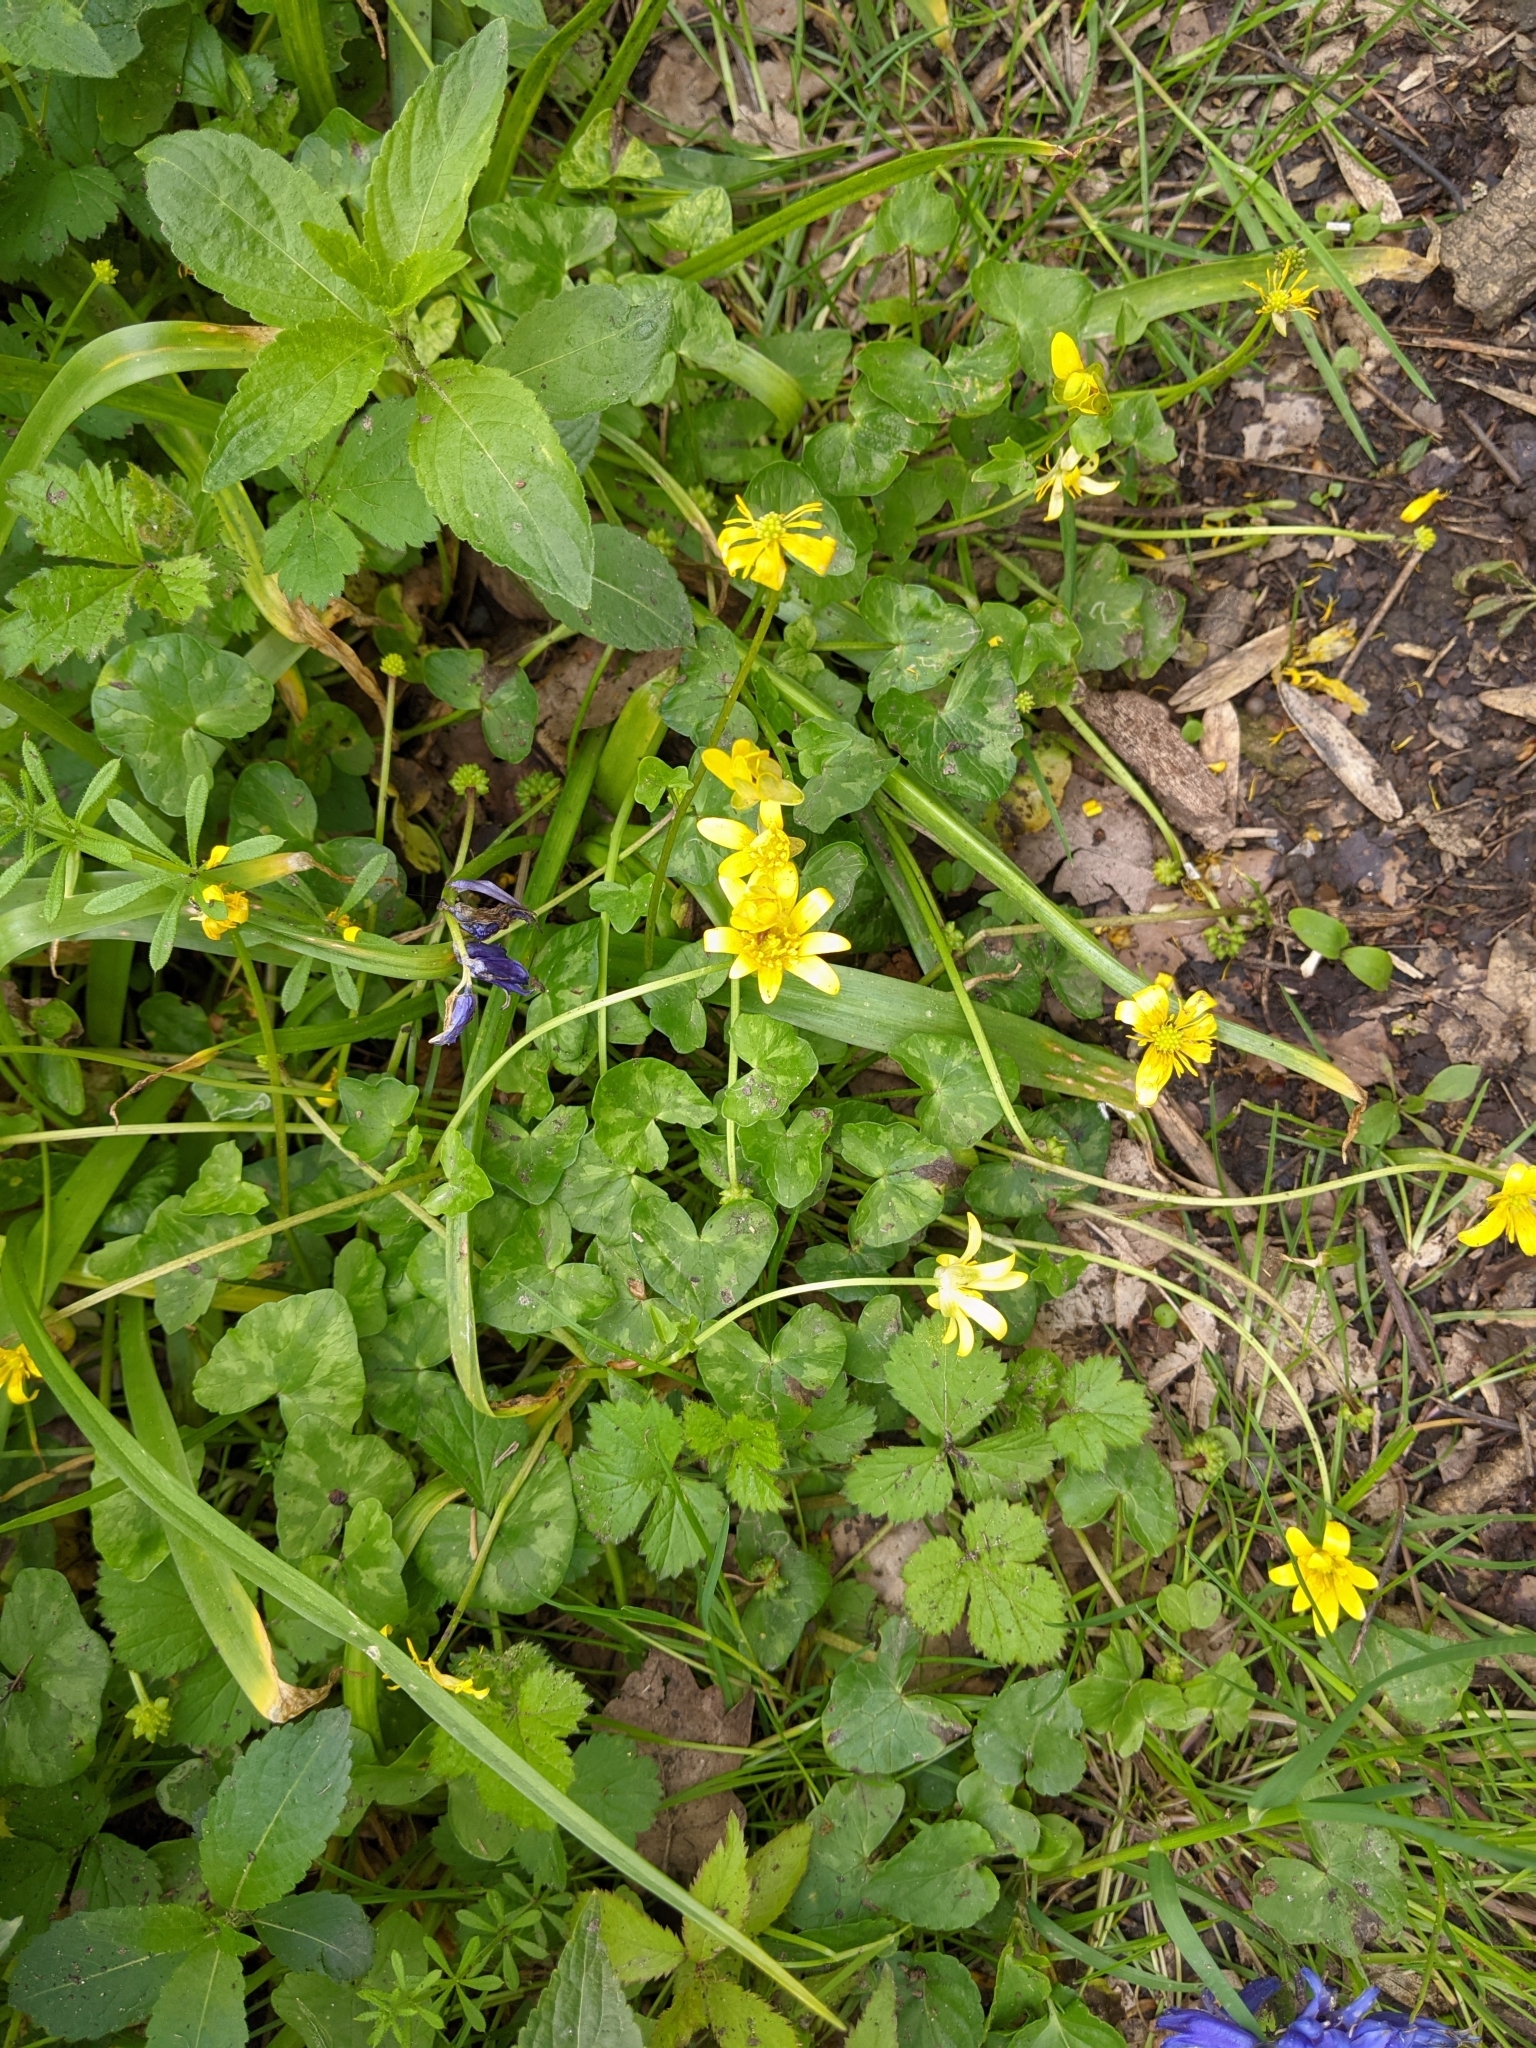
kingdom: Plantae
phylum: Tracheophyta
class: Magnoliopsida
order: Ranunculales
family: Ranunculaceae
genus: Ficaria
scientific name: Ficaria verna
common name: Lesser celandine
